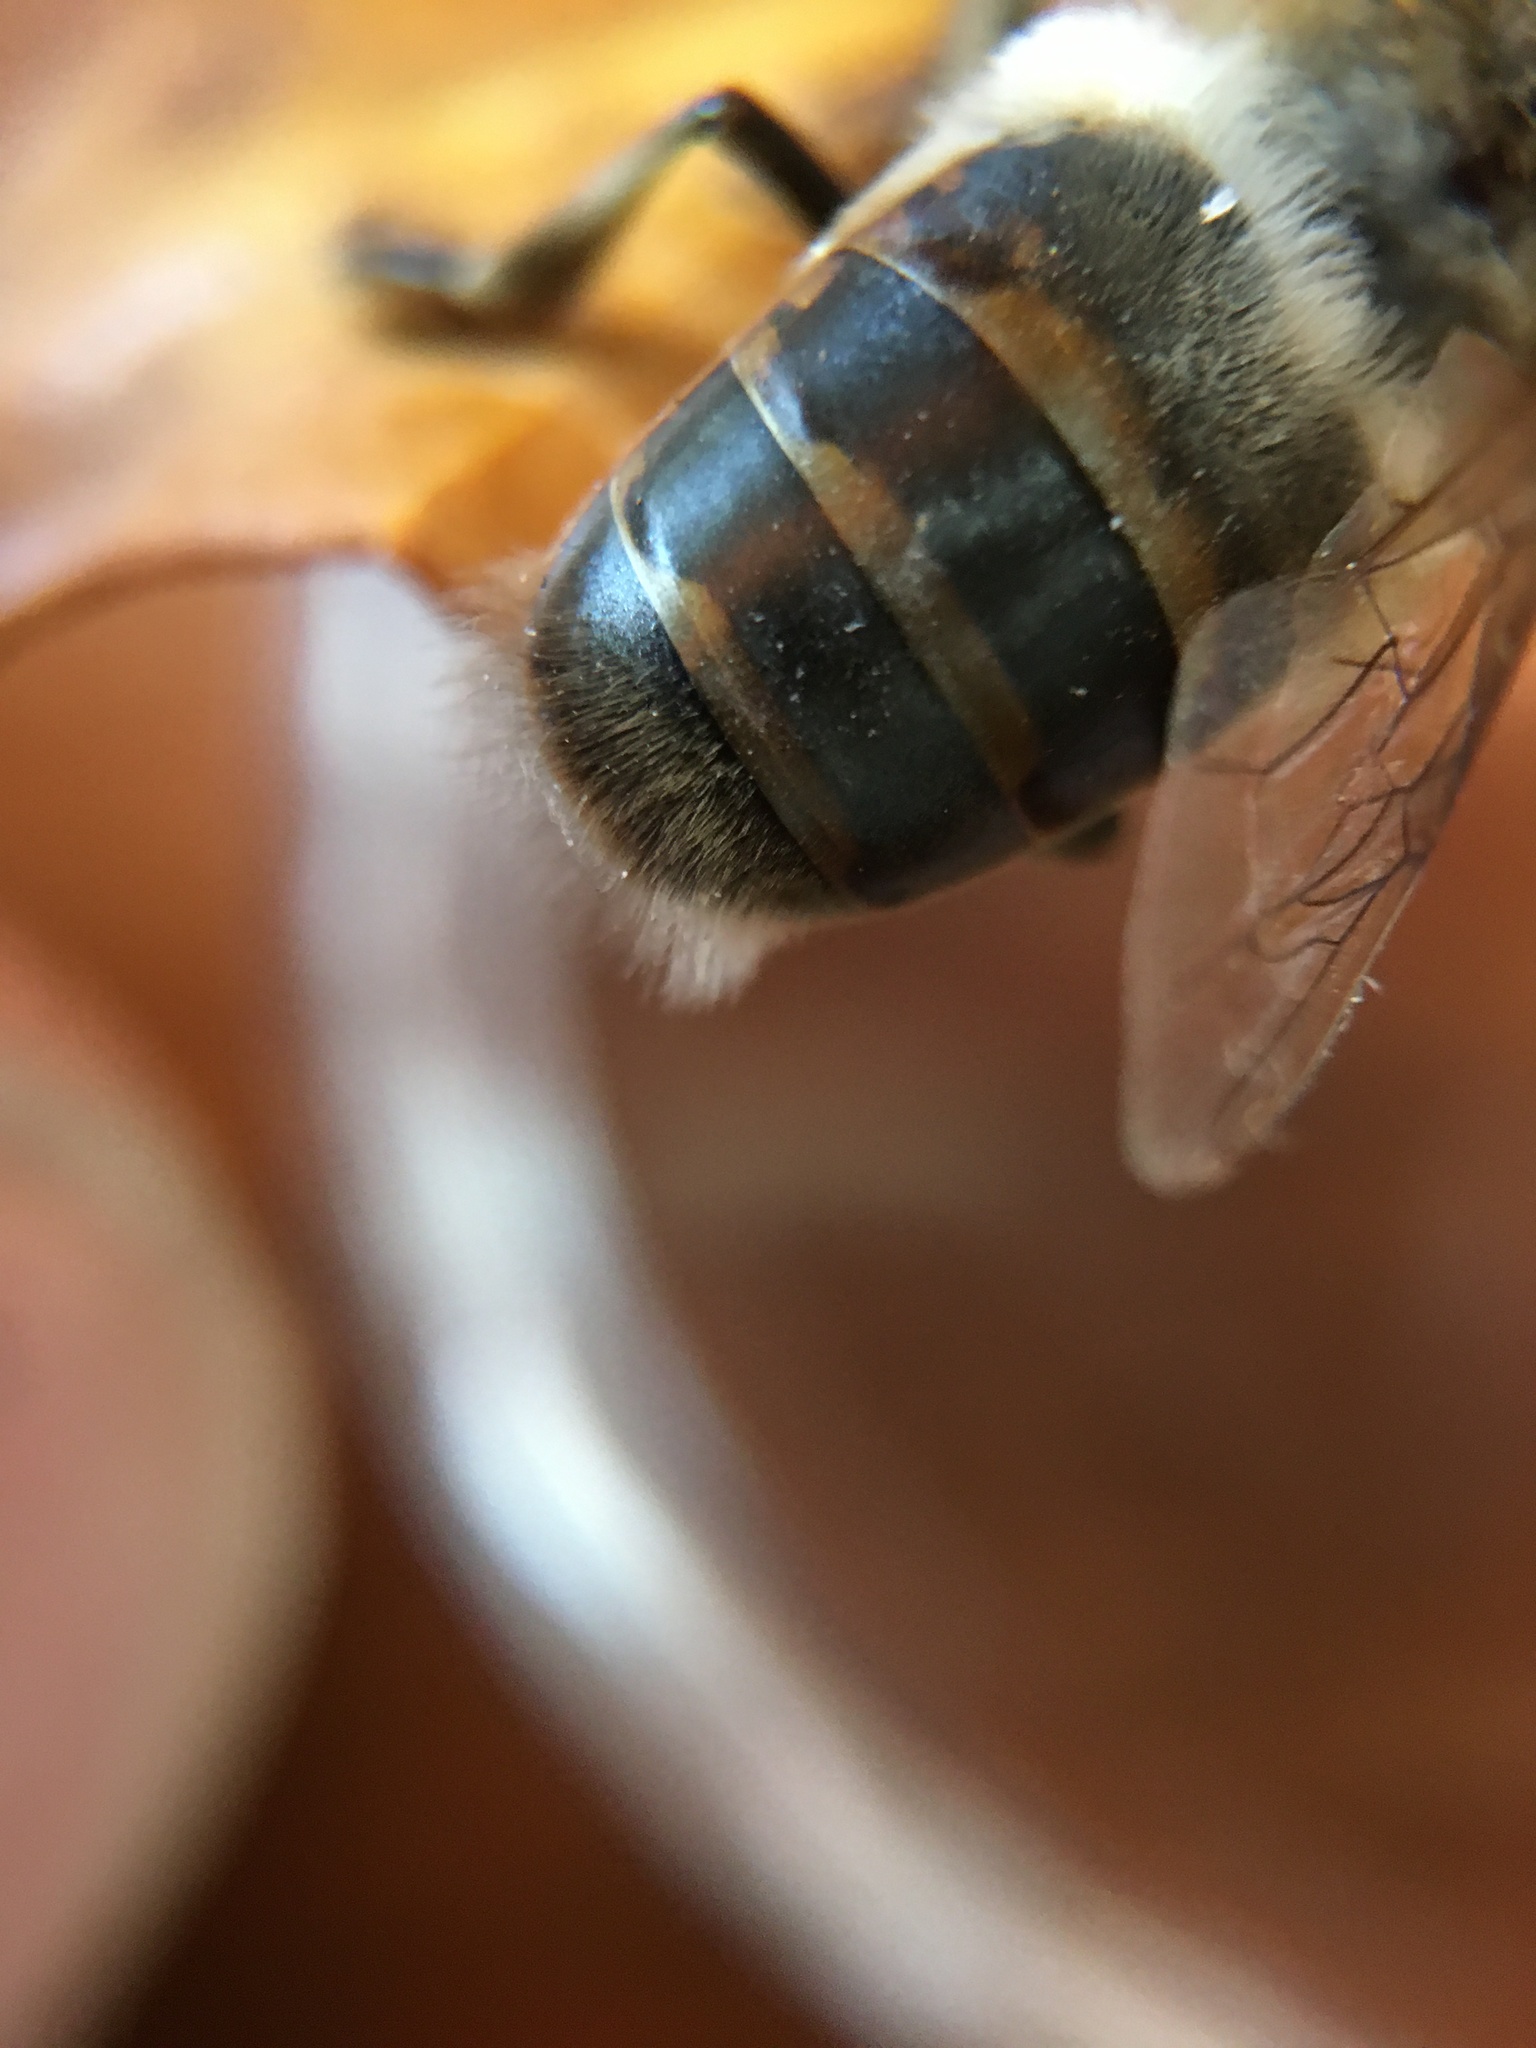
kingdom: Animalia
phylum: Arthropoda
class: Insecta
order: Hymenoptera
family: Apidae
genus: Apis
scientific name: Apis mellifera
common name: Honey bee
